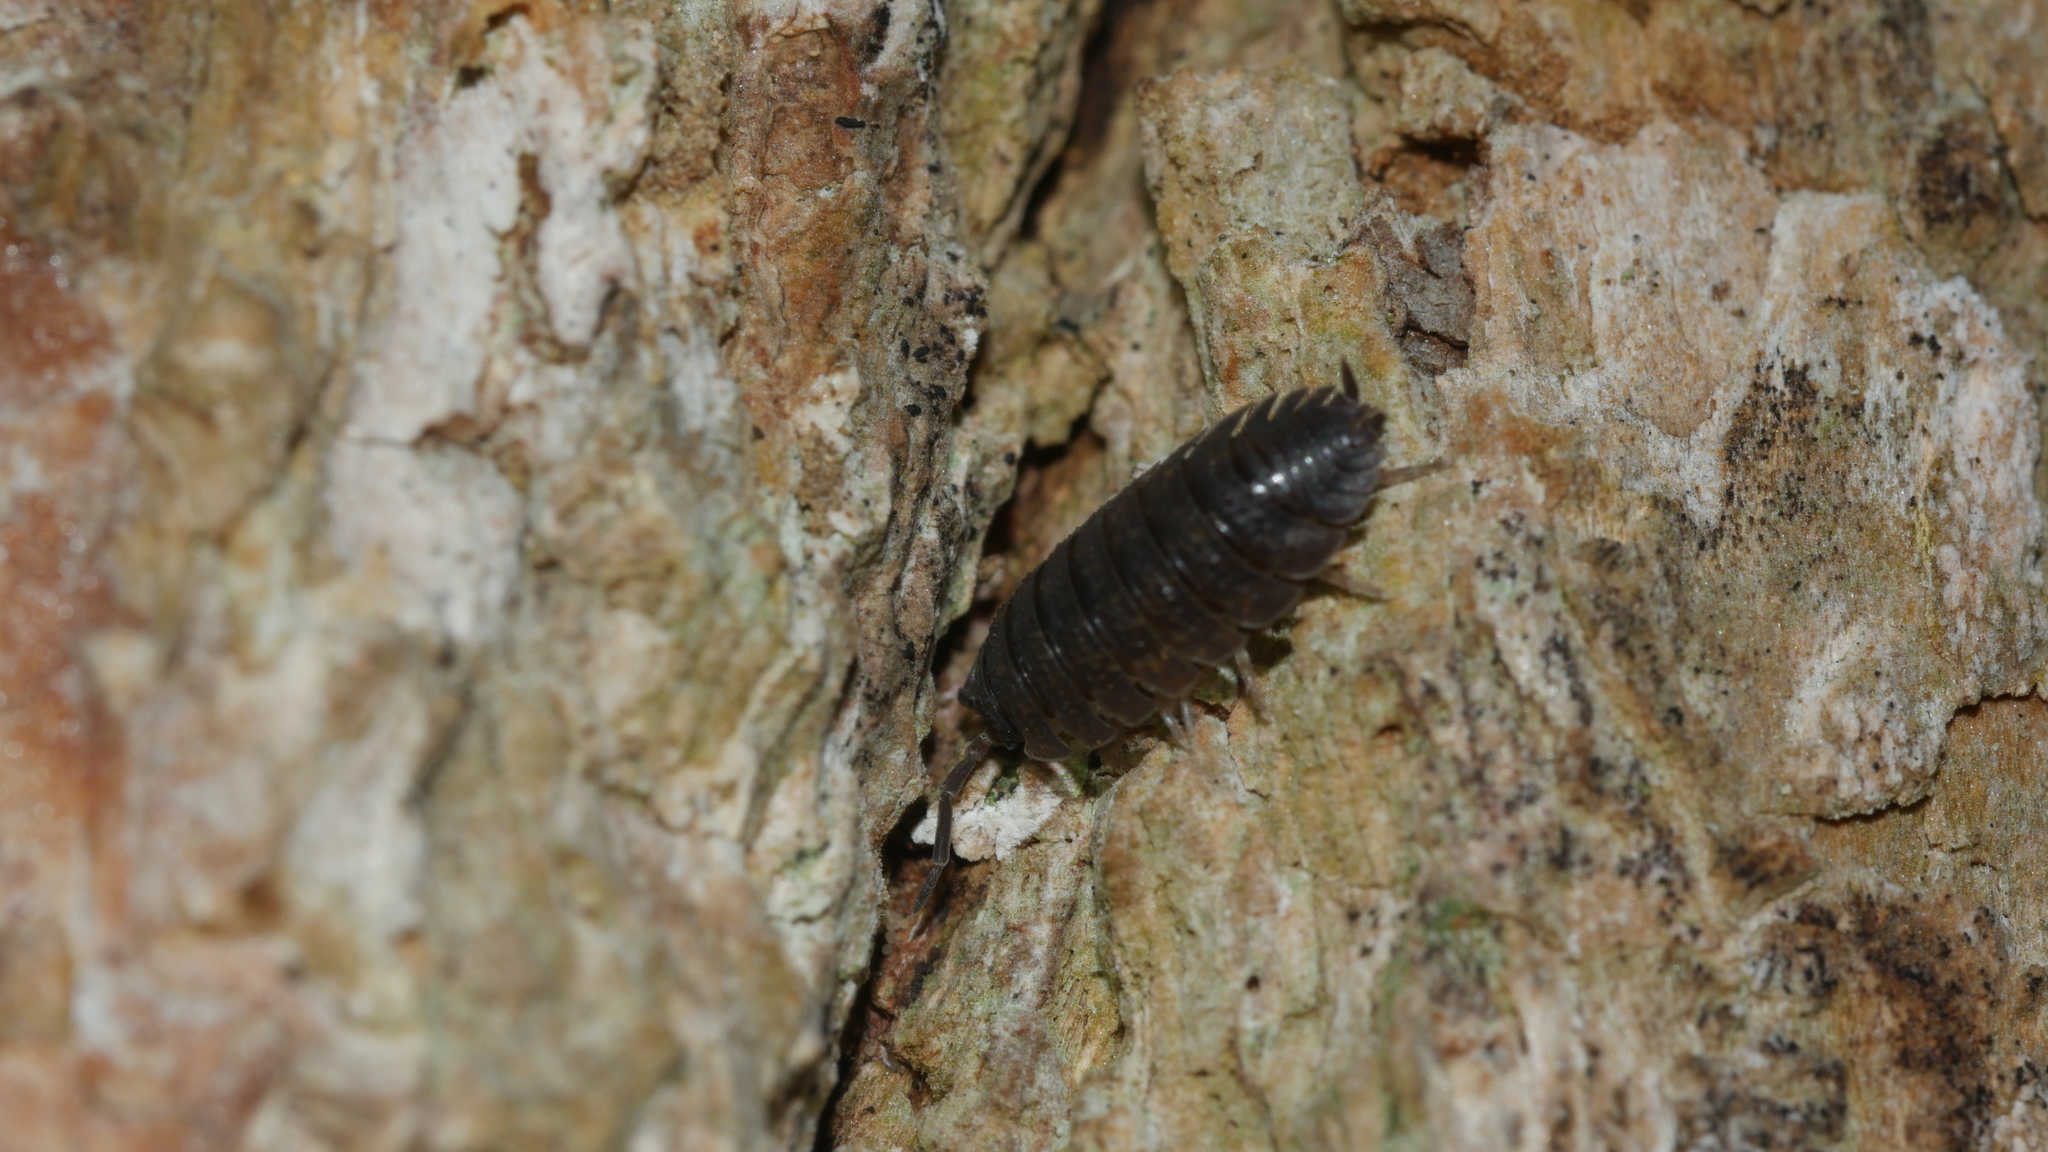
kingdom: Animalia
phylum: Arthropoda
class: Malacostraca
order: Isopoda
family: Porcellionidae
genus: Porcellio
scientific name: Porcellio scaber
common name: Common rough woodlouse
